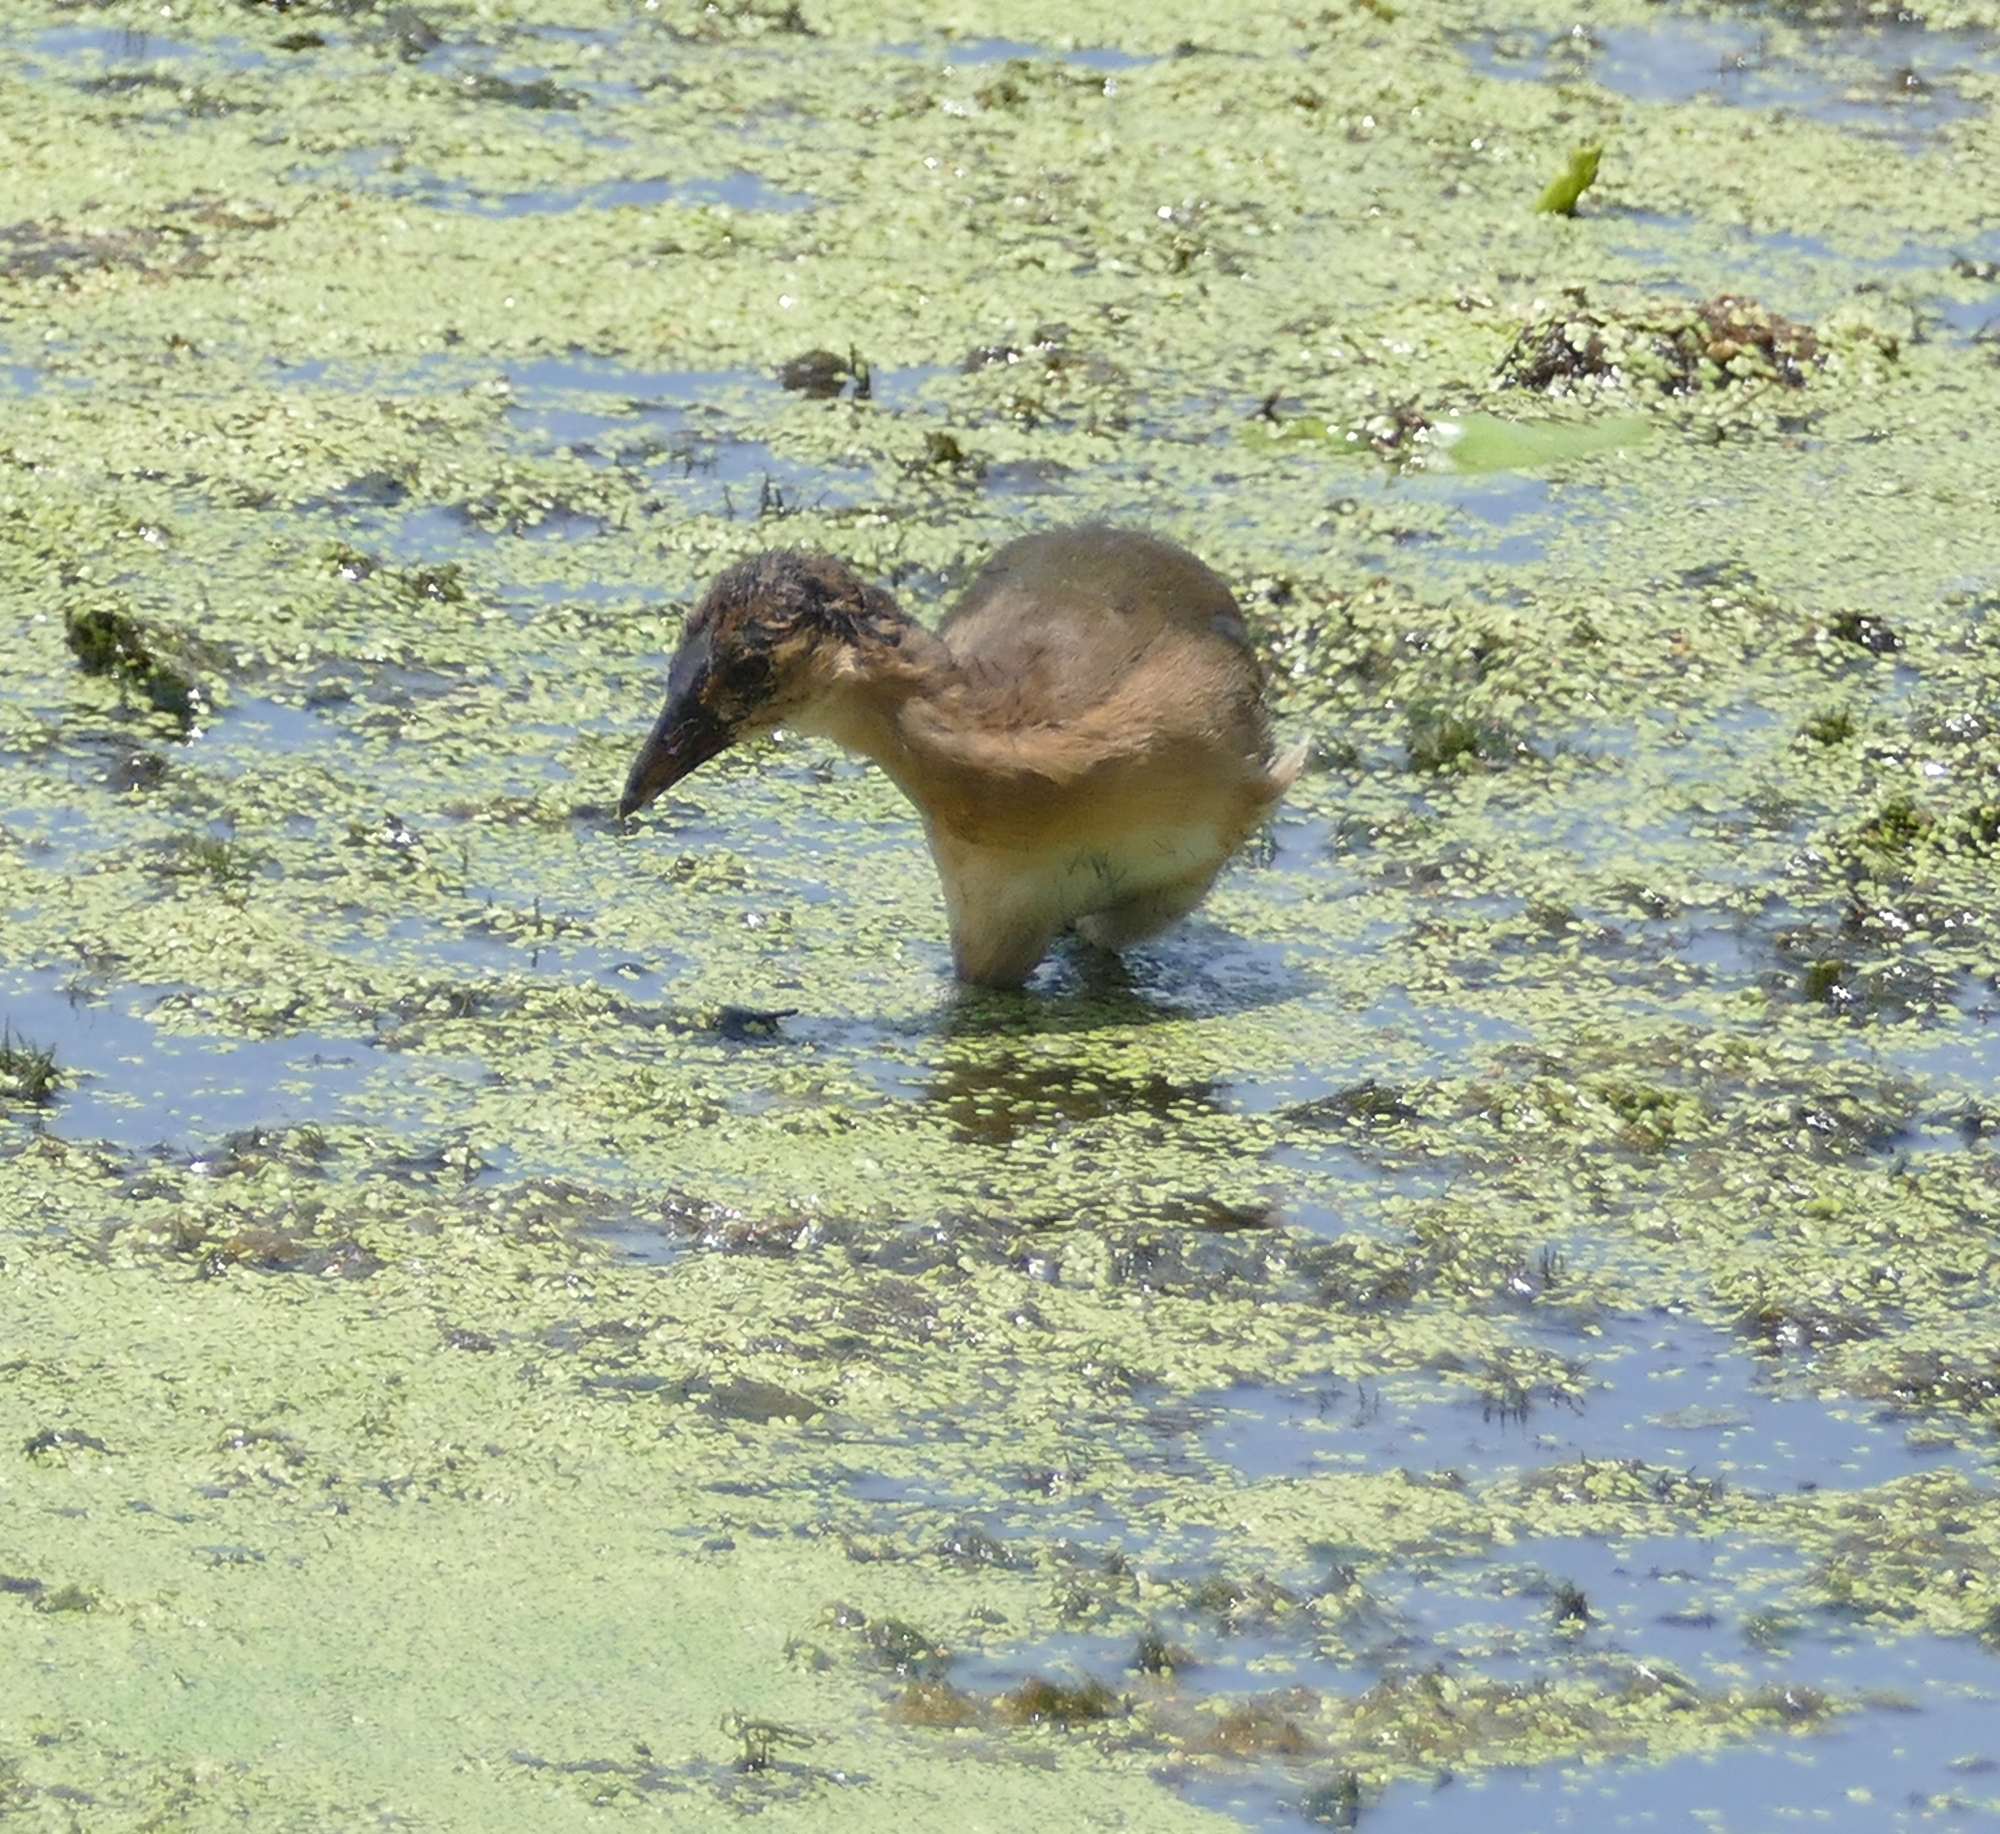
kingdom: Animalia
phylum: Chordata
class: Aves
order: Gruiformes
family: Rallidae
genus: Porphyrio
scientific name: Porphyrio martinica
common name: Purple gallinule
